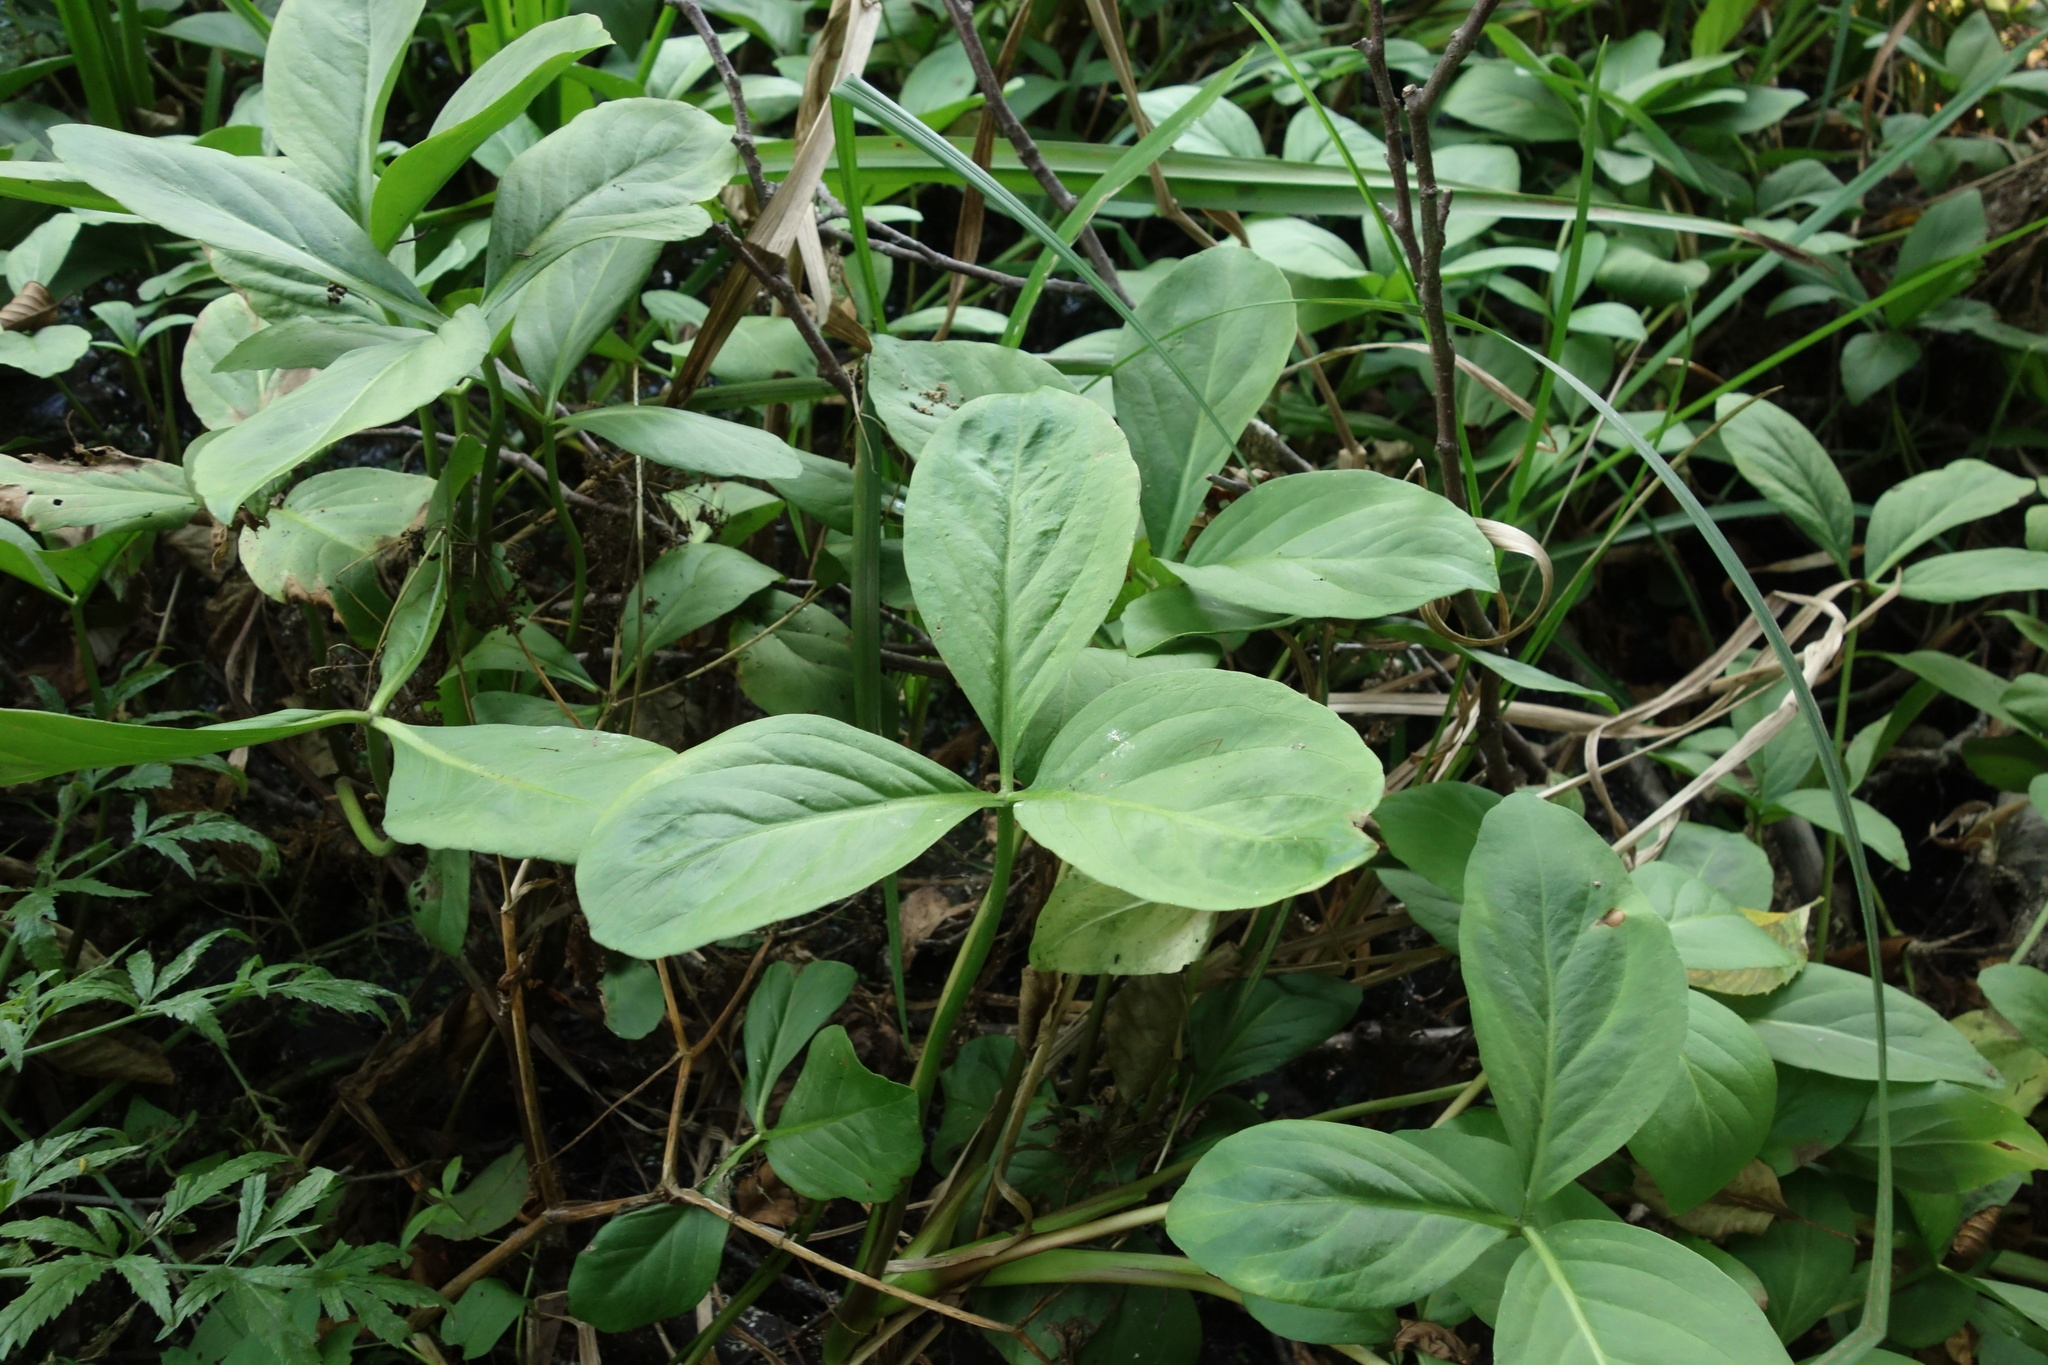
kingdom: Plantae
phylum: Tracheophyta
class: Magnoliopsida
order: Asterales
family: Menyanthaceae
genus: Menyanthes
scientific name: Menyanthes trifoliata
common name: Bogbean
